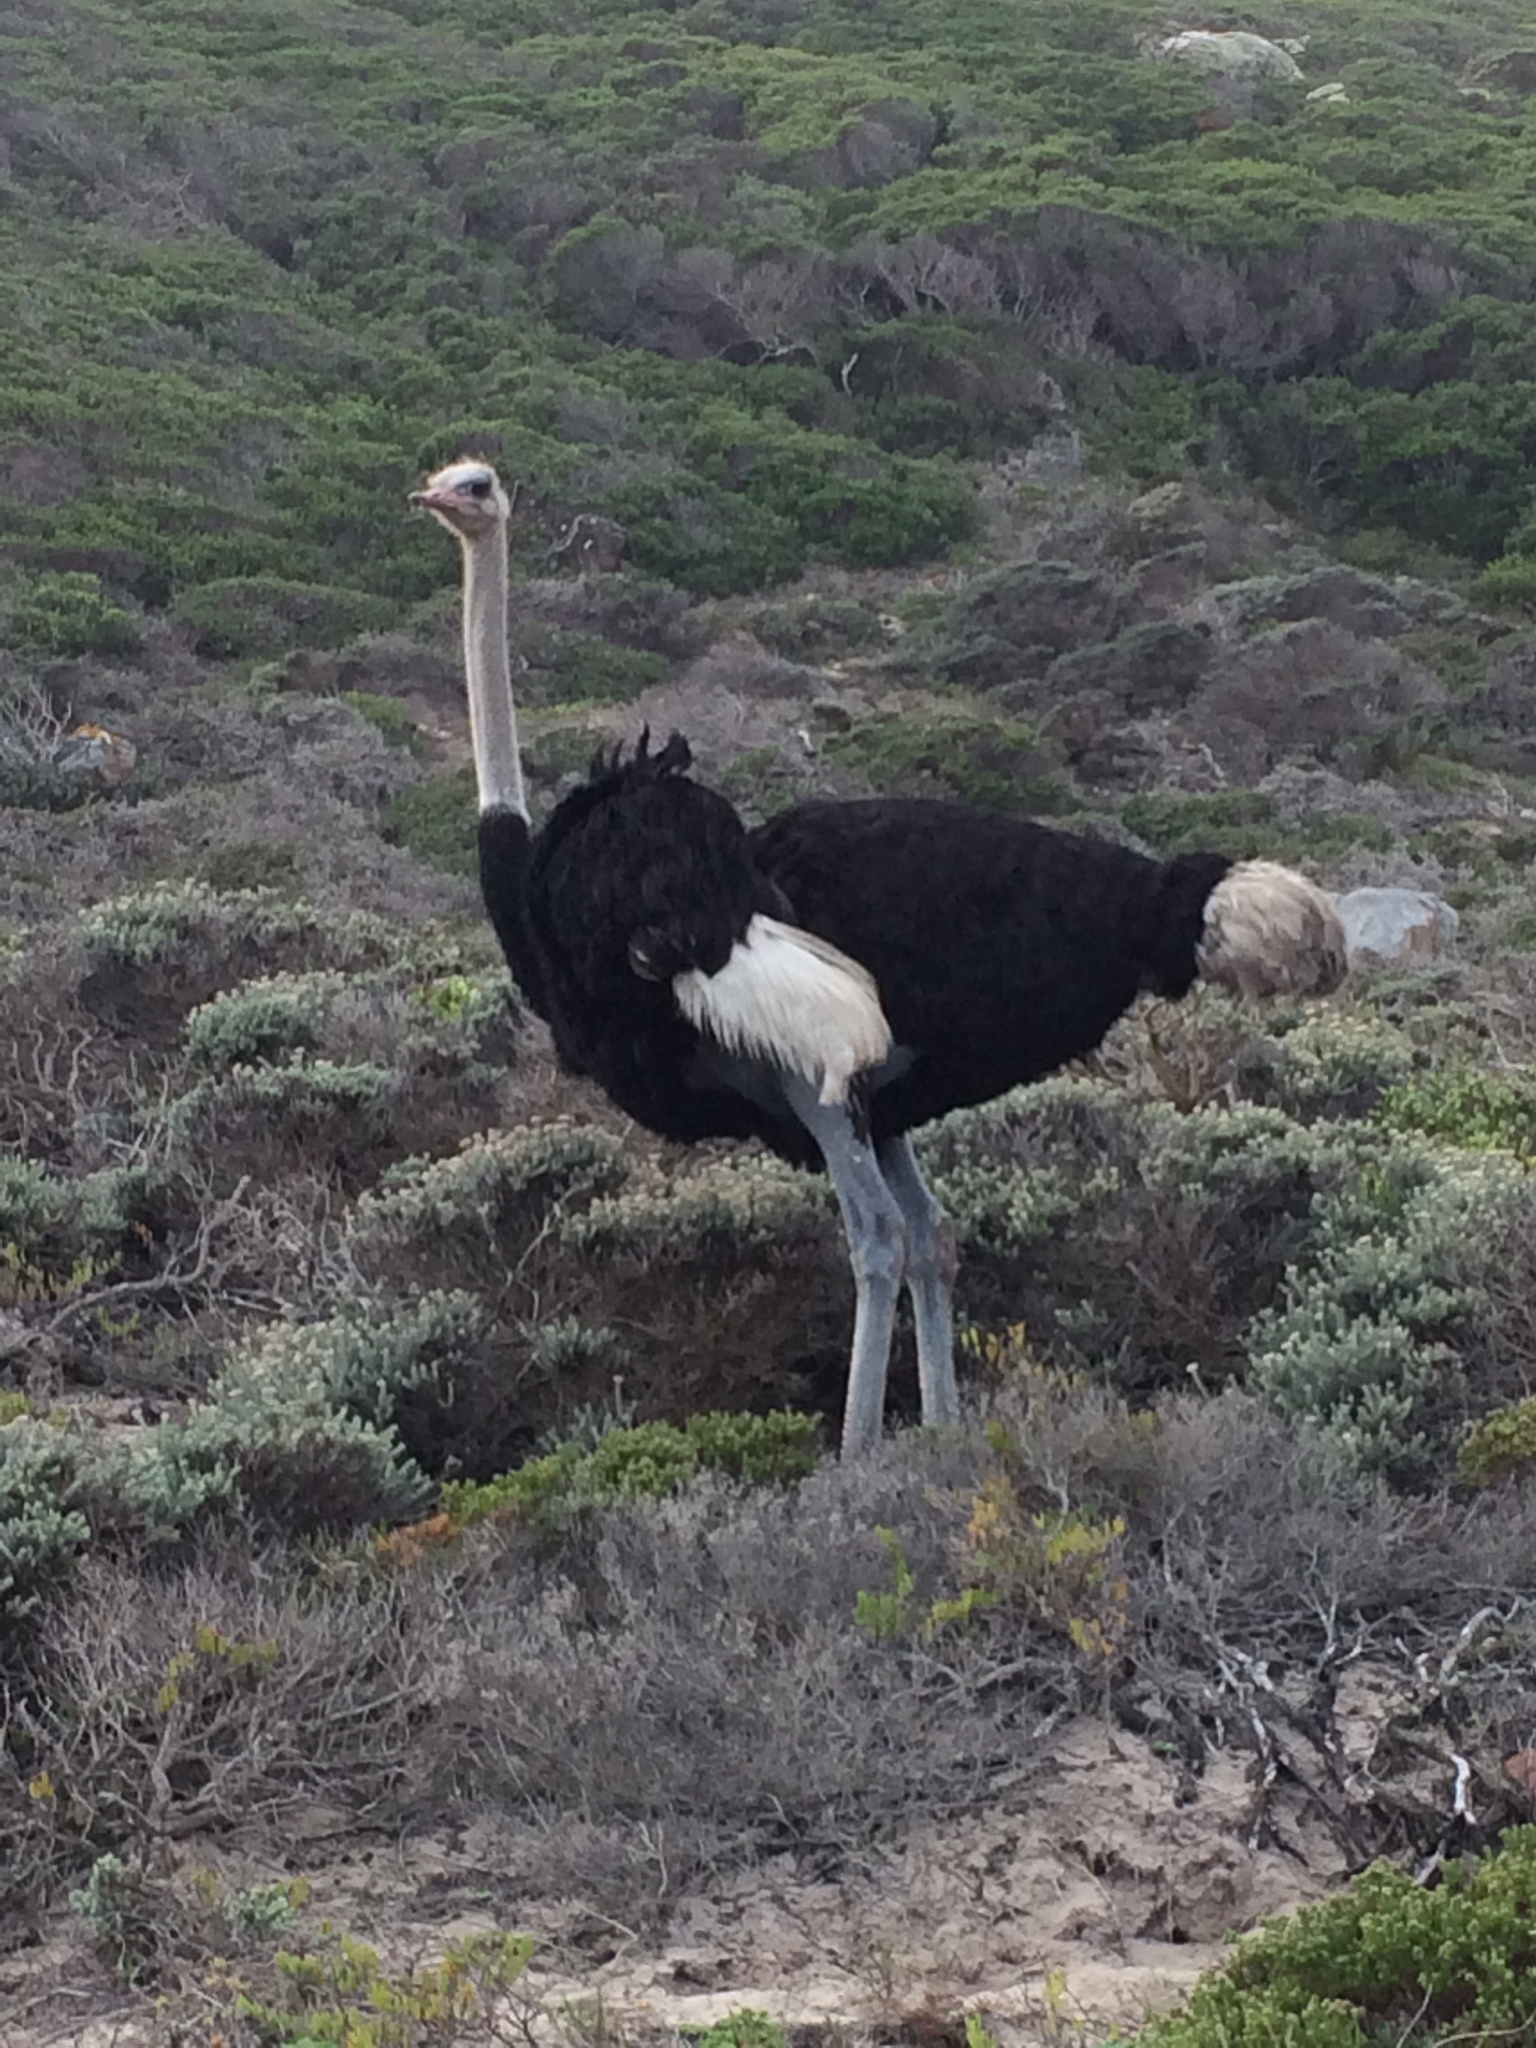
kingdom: Animalia
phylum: Chordata
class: Aves
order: Struthioniformes
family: Struthionidae
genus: Struthio
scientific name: Struthio camelus
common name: Common ostrich
